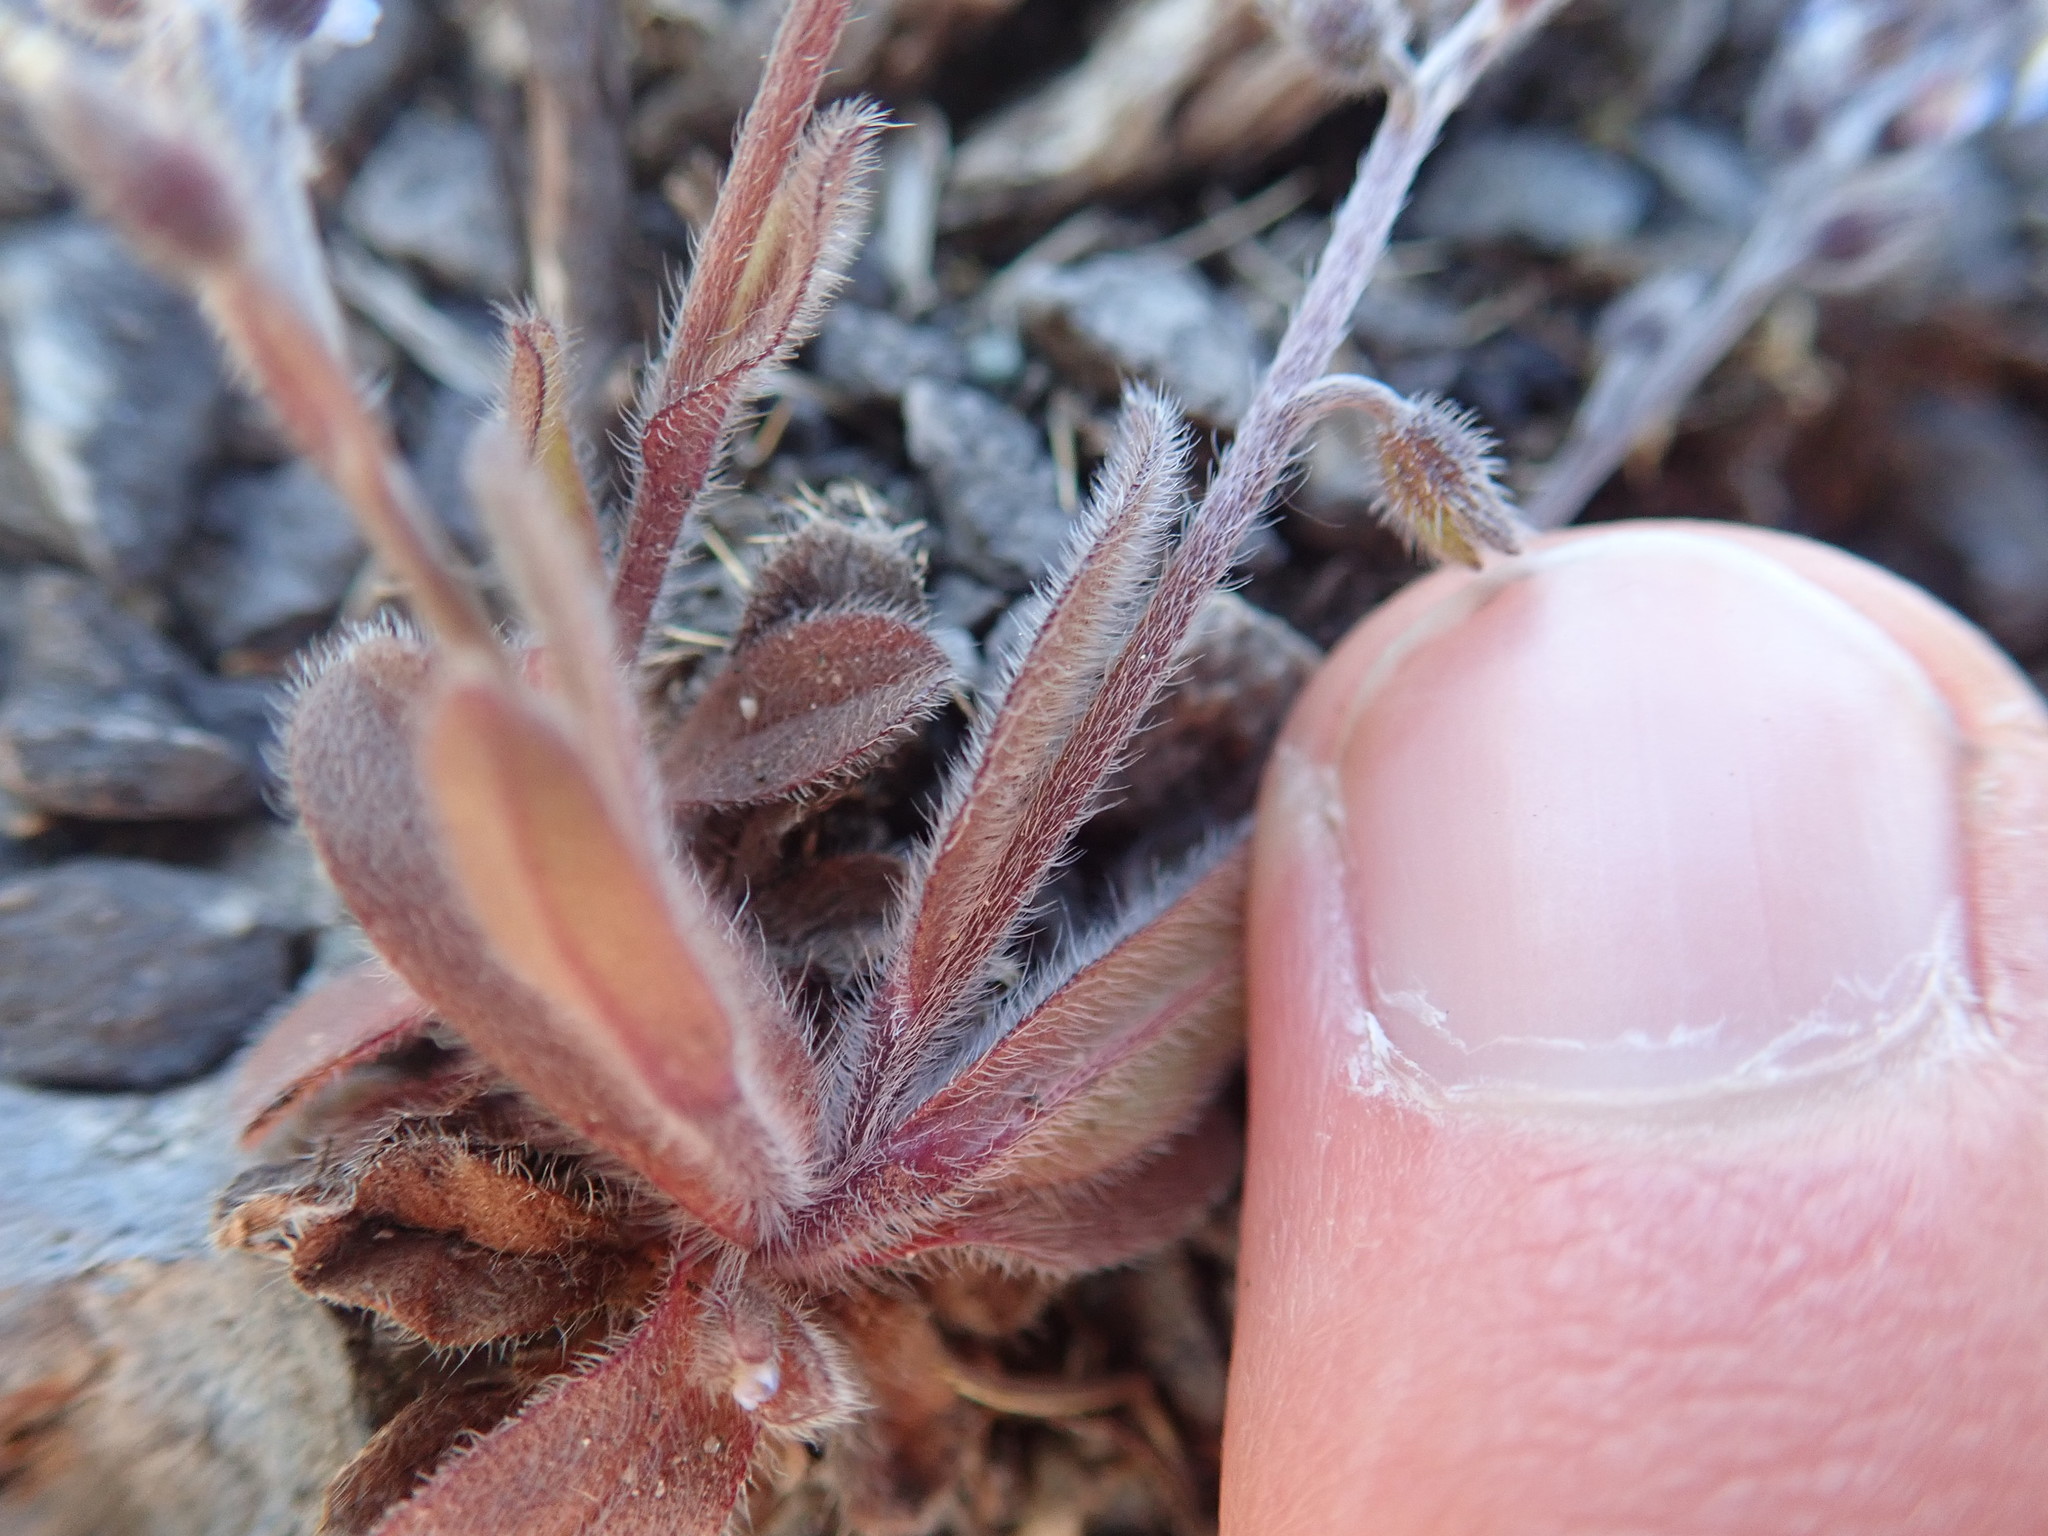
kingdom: Plantae
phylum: Tracheophyta
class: Magnoliopsida
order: Boraginales
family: Boraginaceae
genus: Myosotis
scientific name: Myosotis ramosissima
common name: Early forget-me-not
